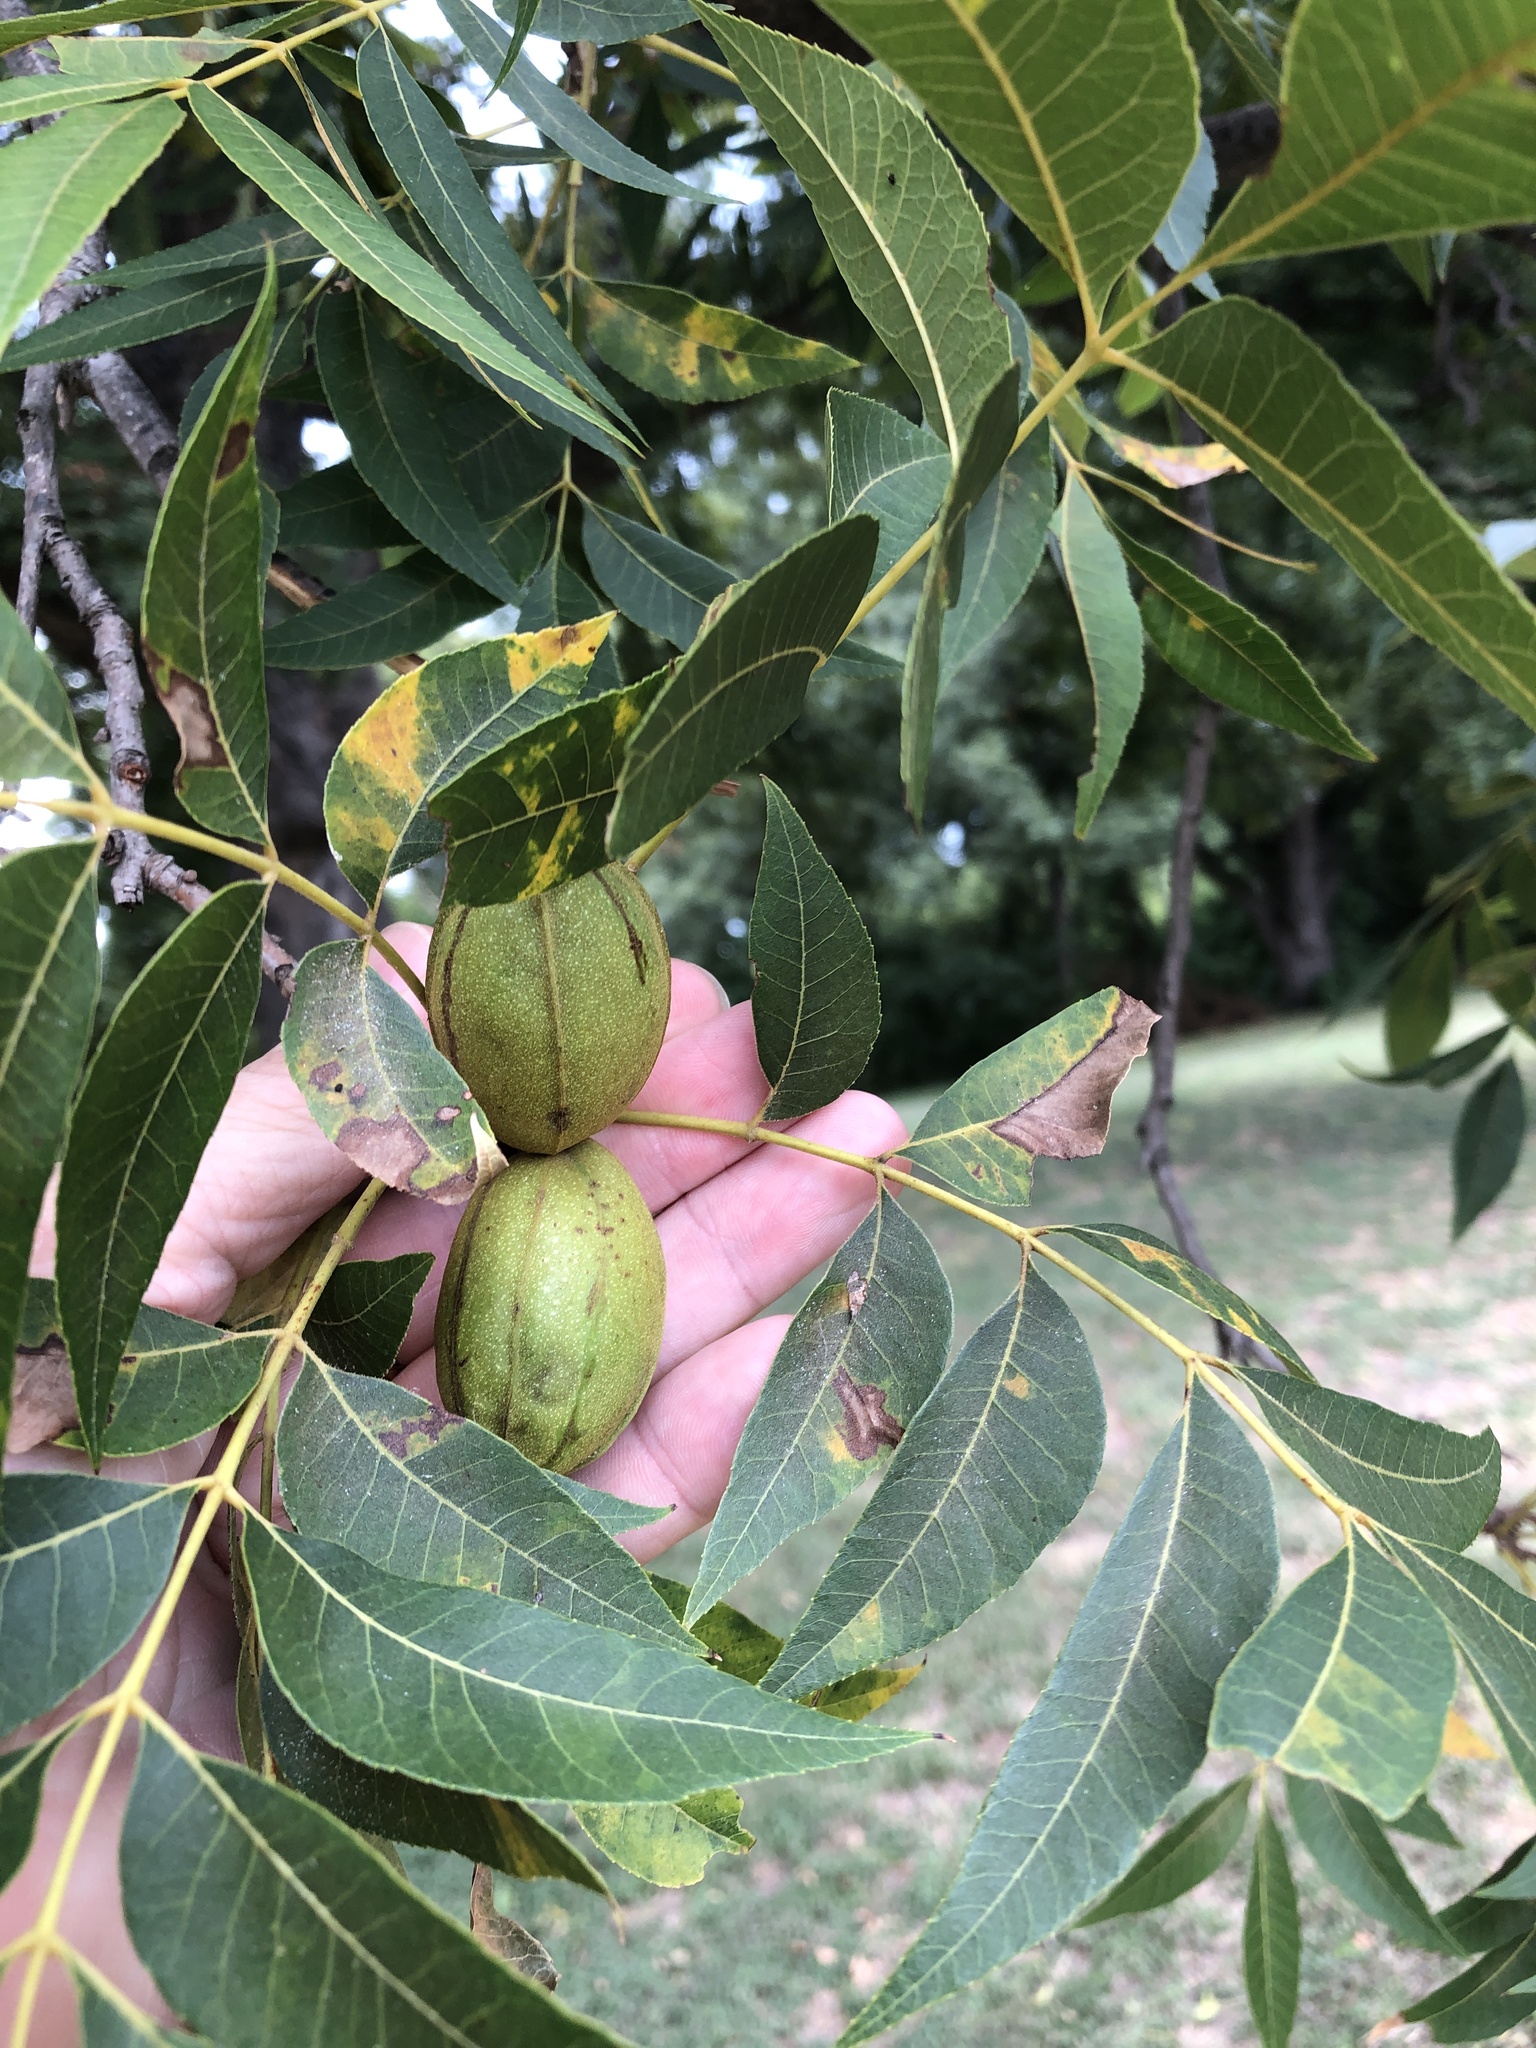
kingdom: Plantae
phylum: Tracheophyta
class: Magnoliopsida
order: Fagales
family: Juglandaceae
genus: Carya
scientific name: Carya illinoinensis
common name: Pecan
